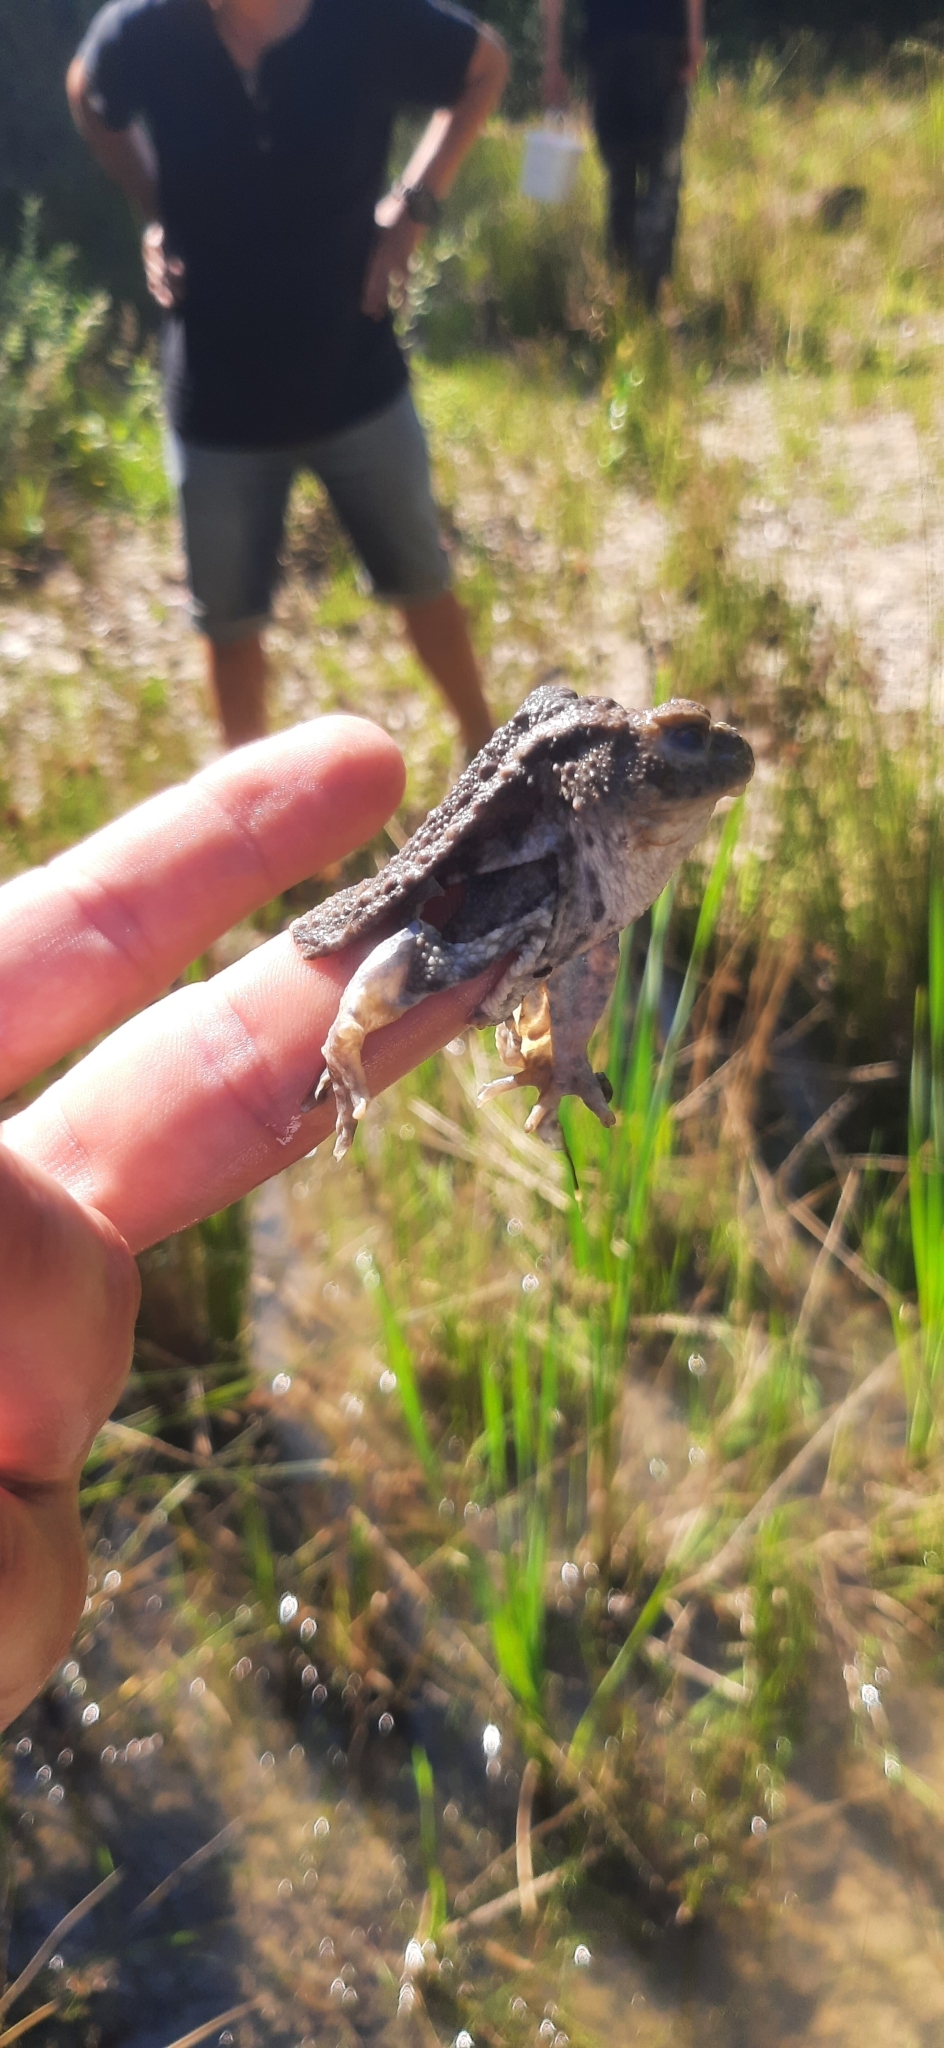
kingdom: Animalia
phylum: Chordata
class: Amphibia
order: Anura
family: Bufonidae
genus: Bufo
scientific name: Bufo bufo
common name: Common toad
